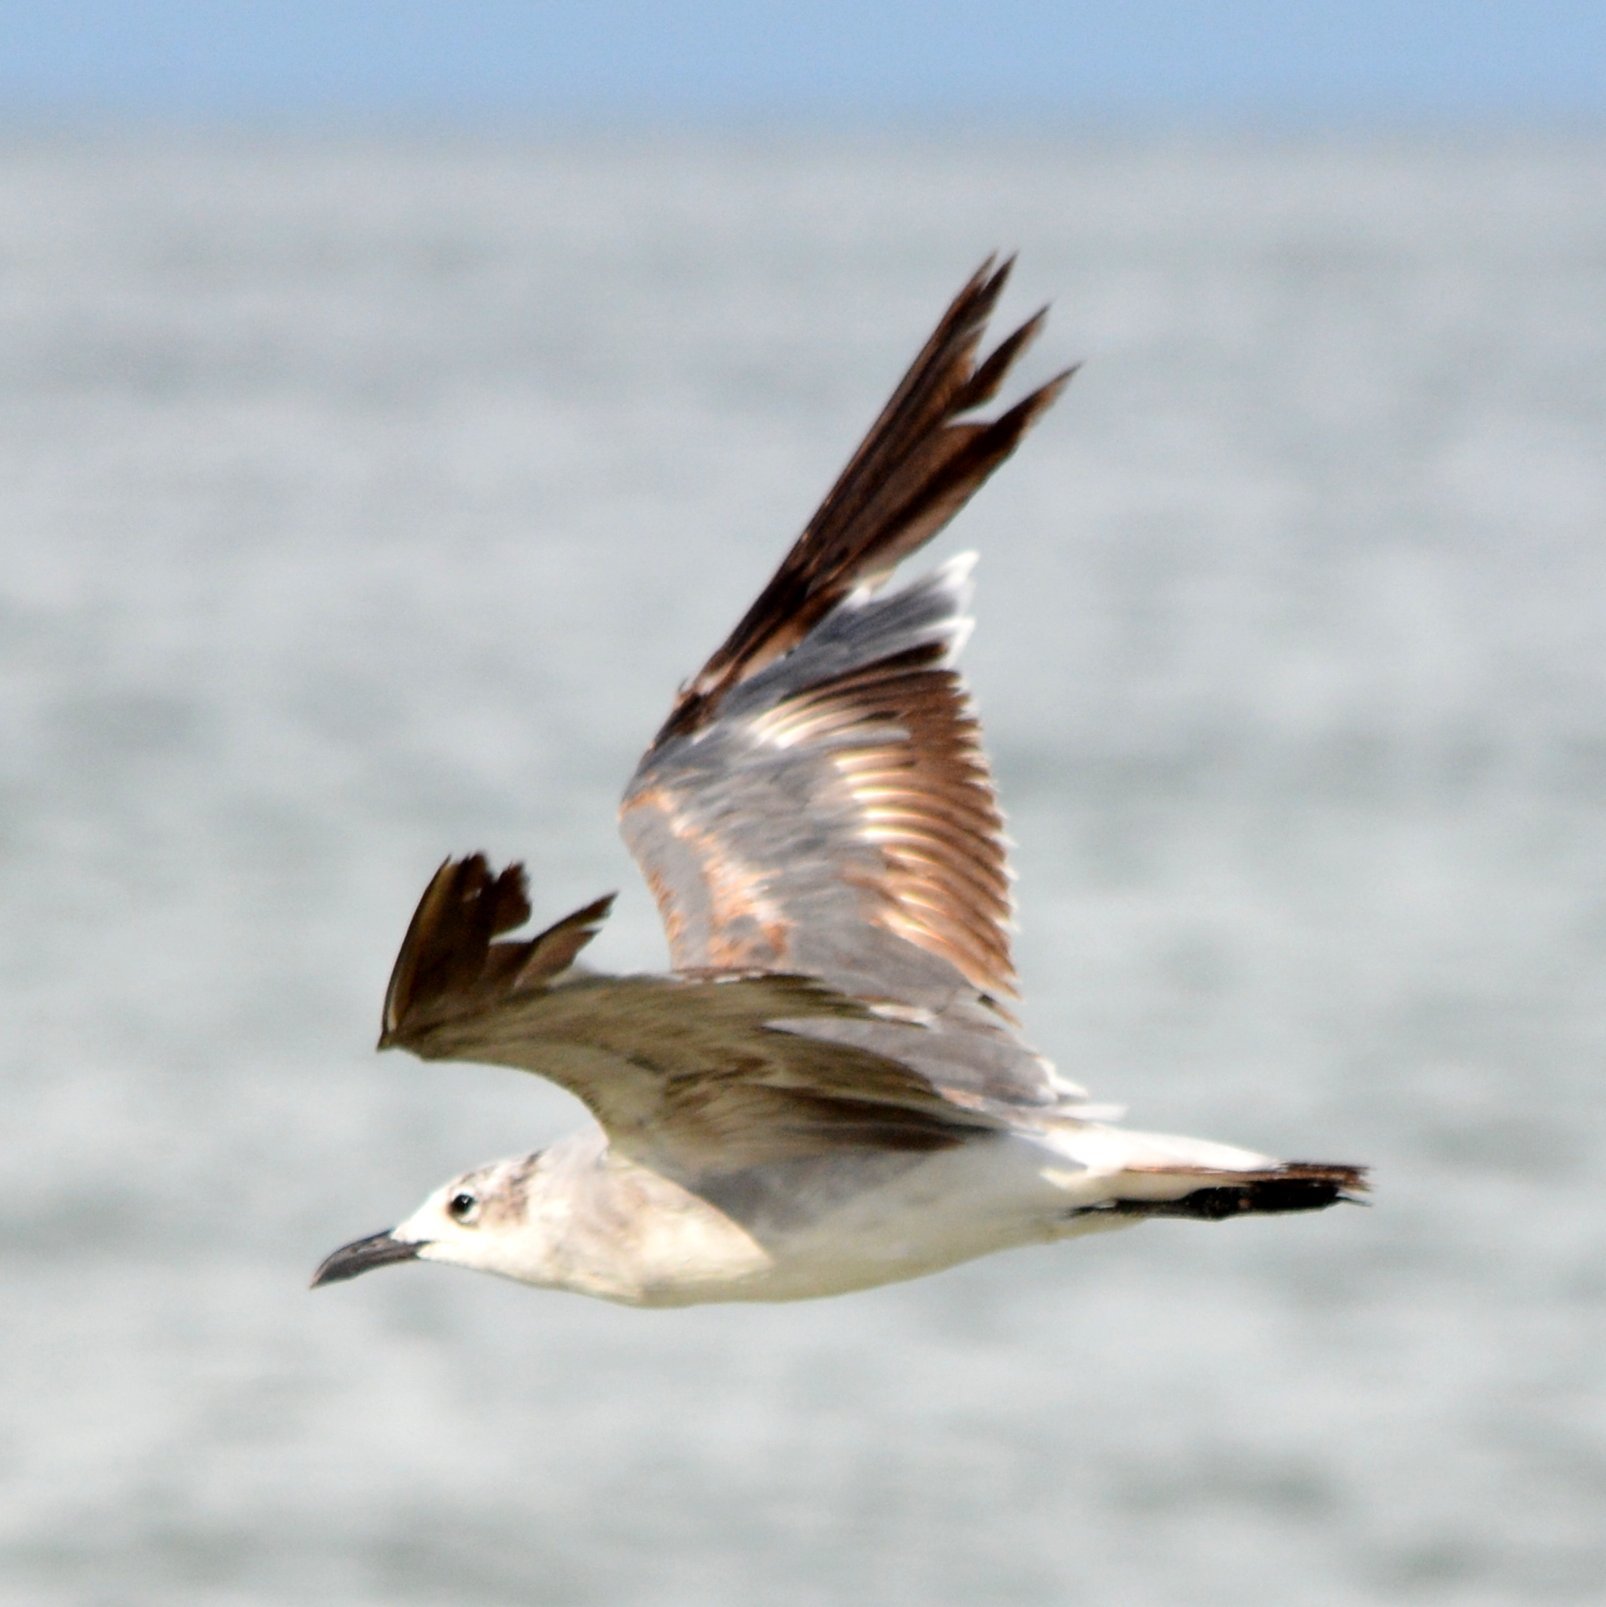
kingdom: Animalia
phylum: Chordata
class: Aves
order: Charadriiformes
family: Laridae
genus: Leucophaeus
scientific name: Leucophaeus atricilla
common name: Laughing gull
